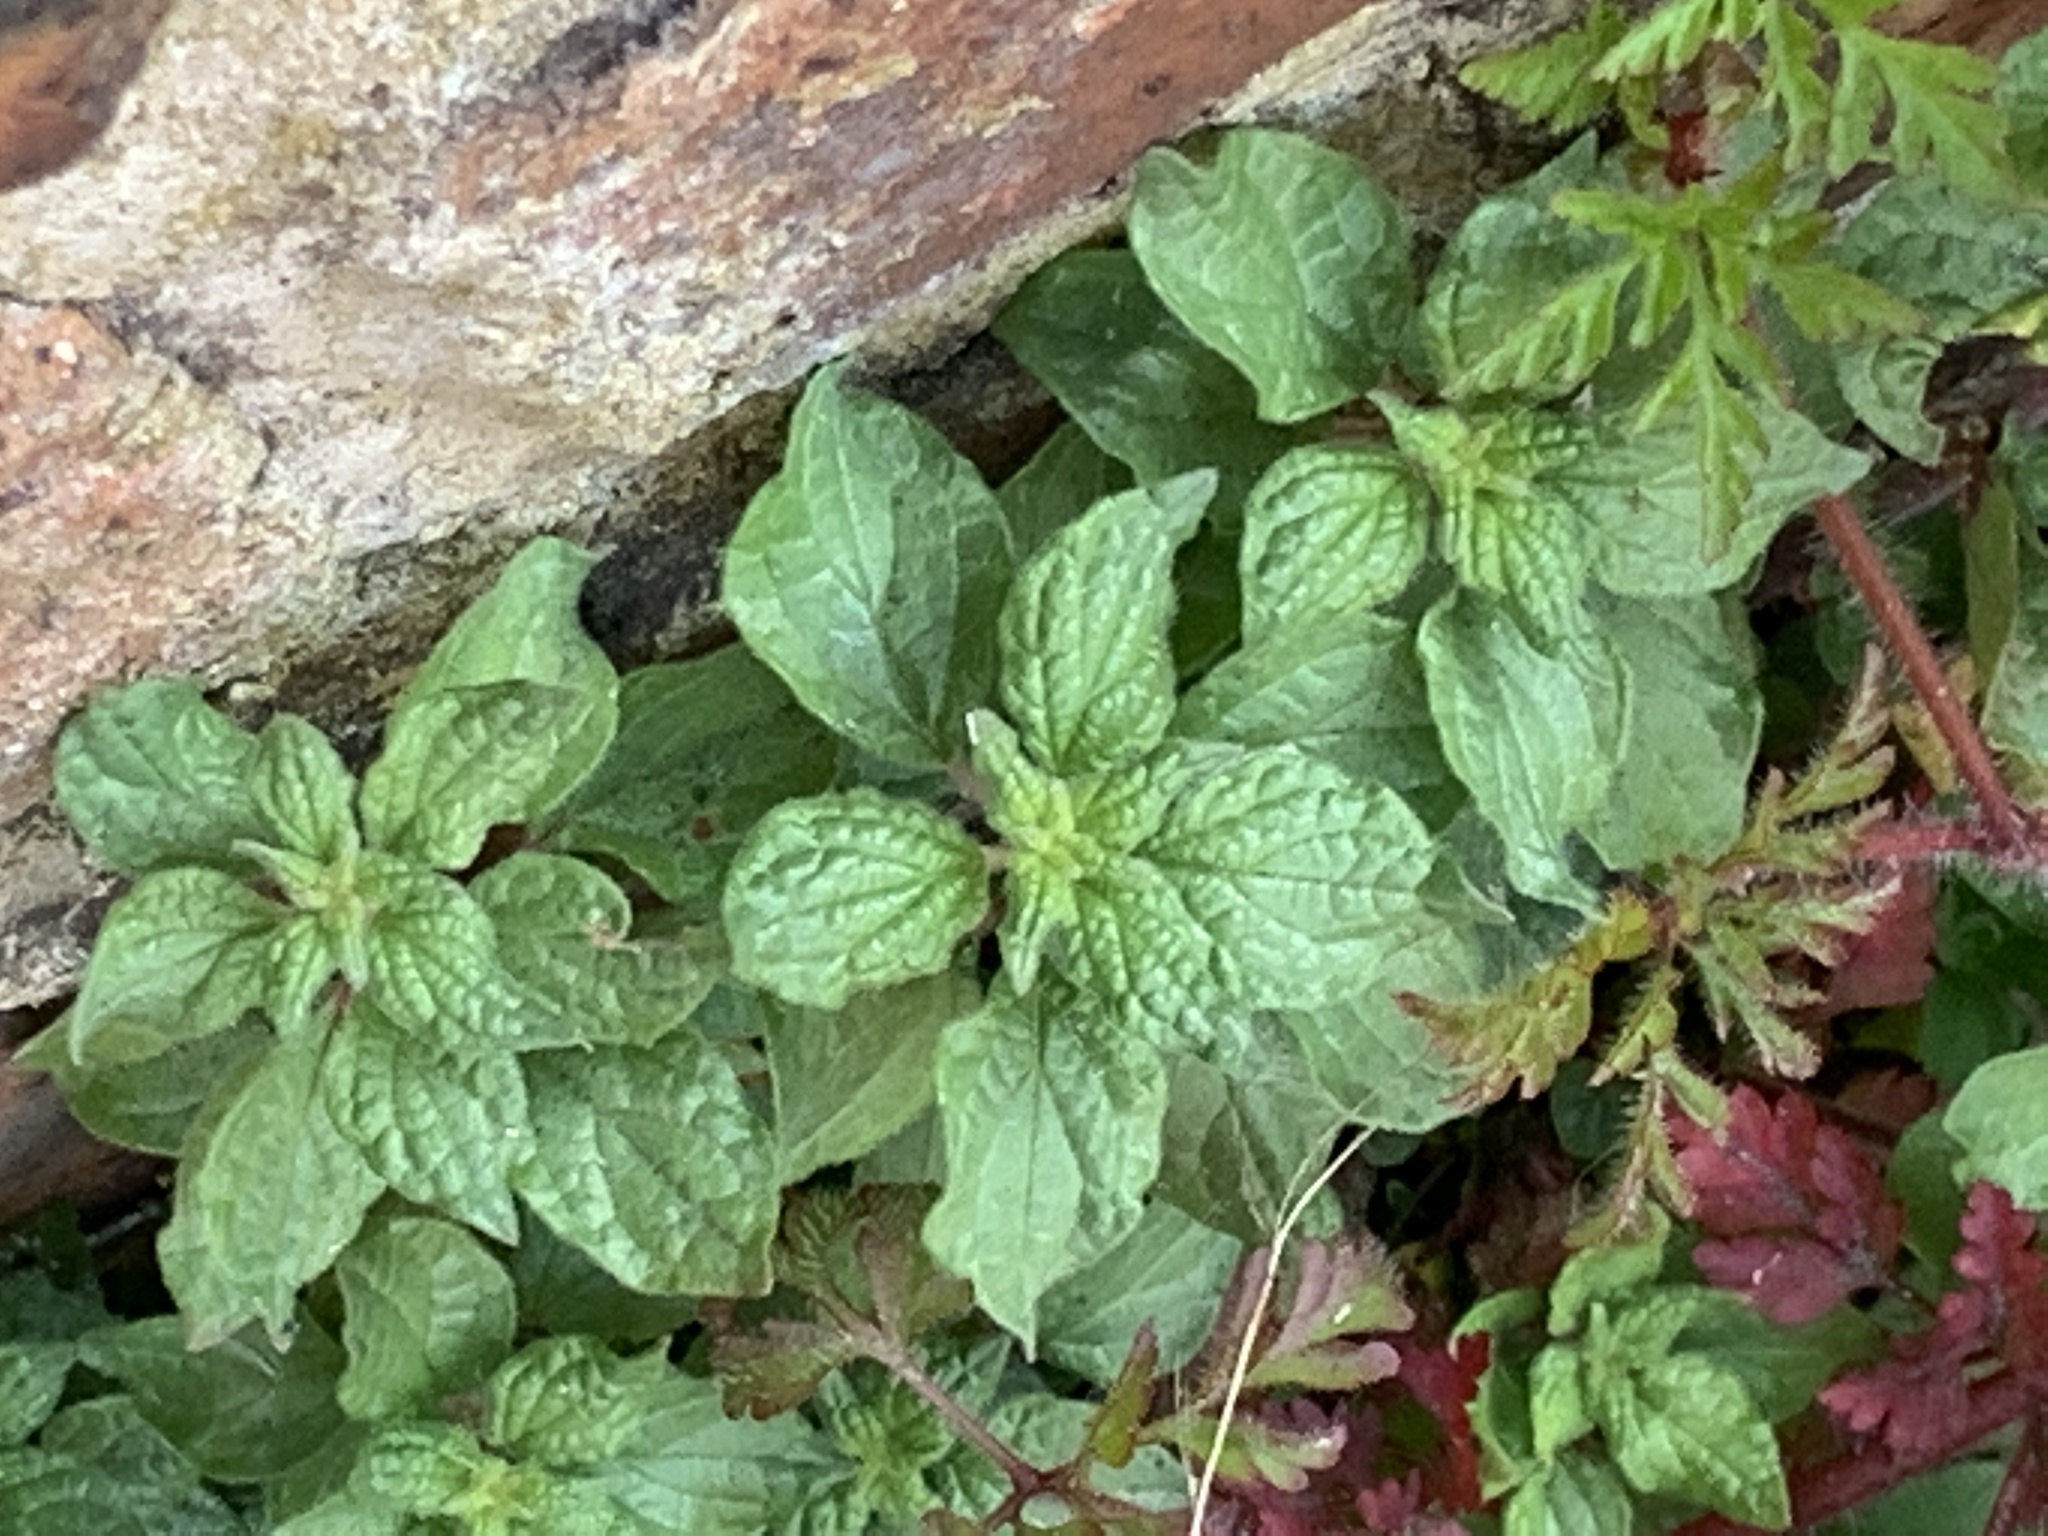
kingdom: Plantae
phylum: Tracheophyta
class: Magnoliopsida
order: Rosales
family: Urticaceae
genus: Parietaria
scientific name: Parietaria judaica
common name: Pellitory-of-the-wall
